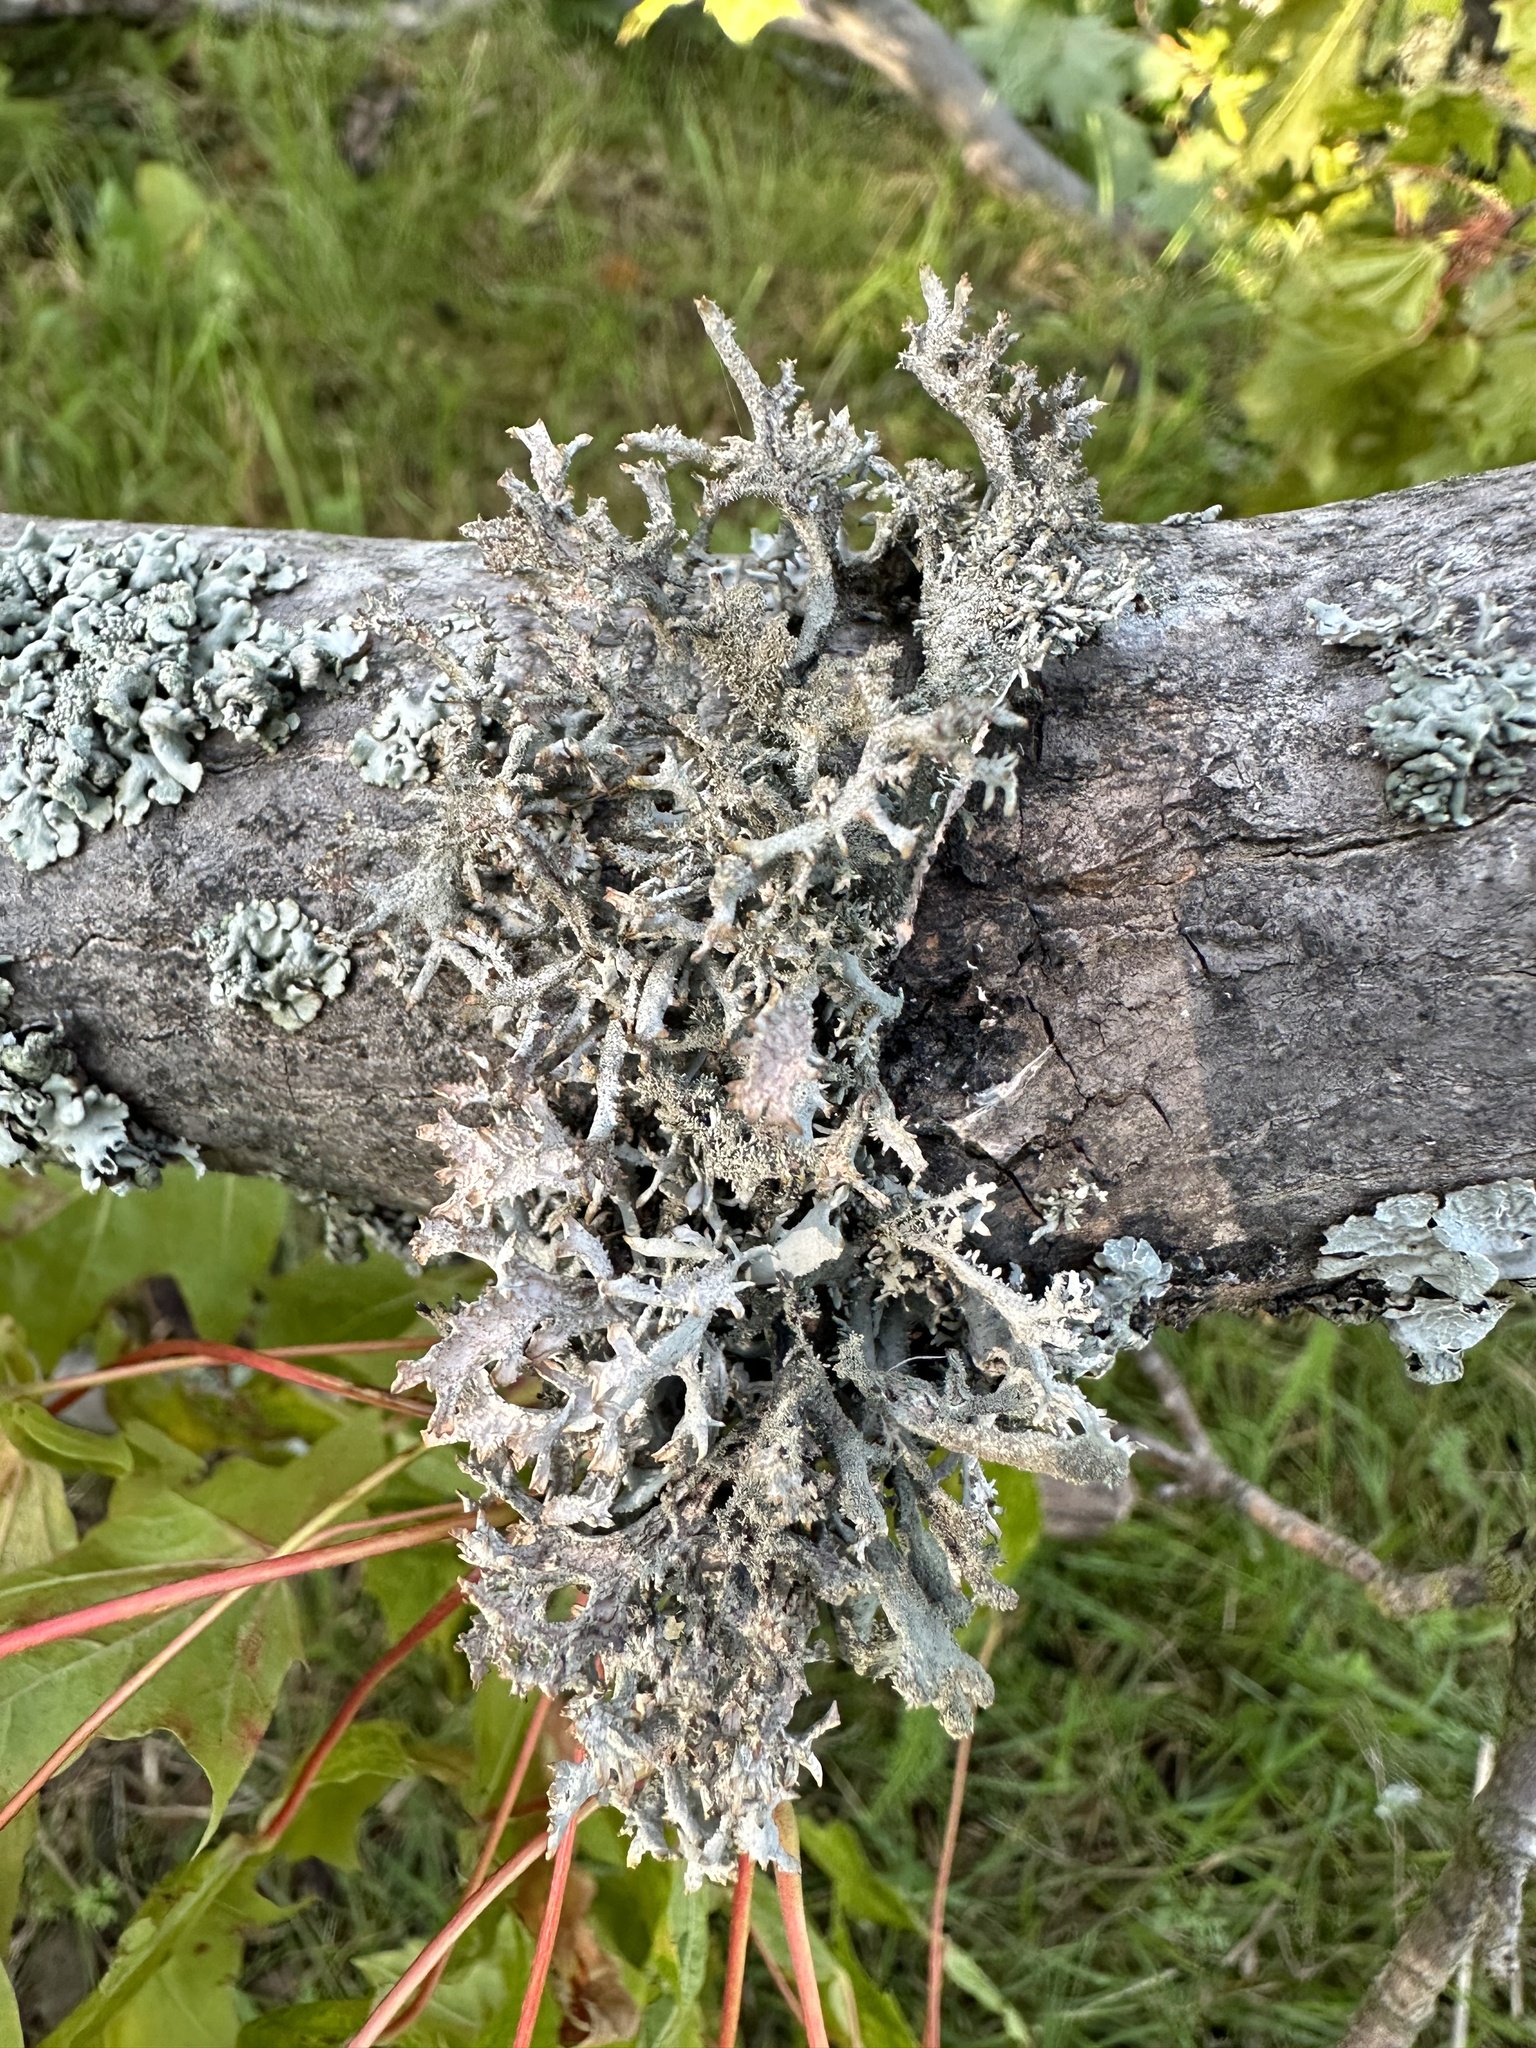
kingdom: Fungi
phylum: Ascomycota
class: Lecanoromycetes
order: Lecanorales
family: Parmeliaceae
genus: Pseudevernia
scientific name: Pseudevernia furfuracea
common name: Tree moss
